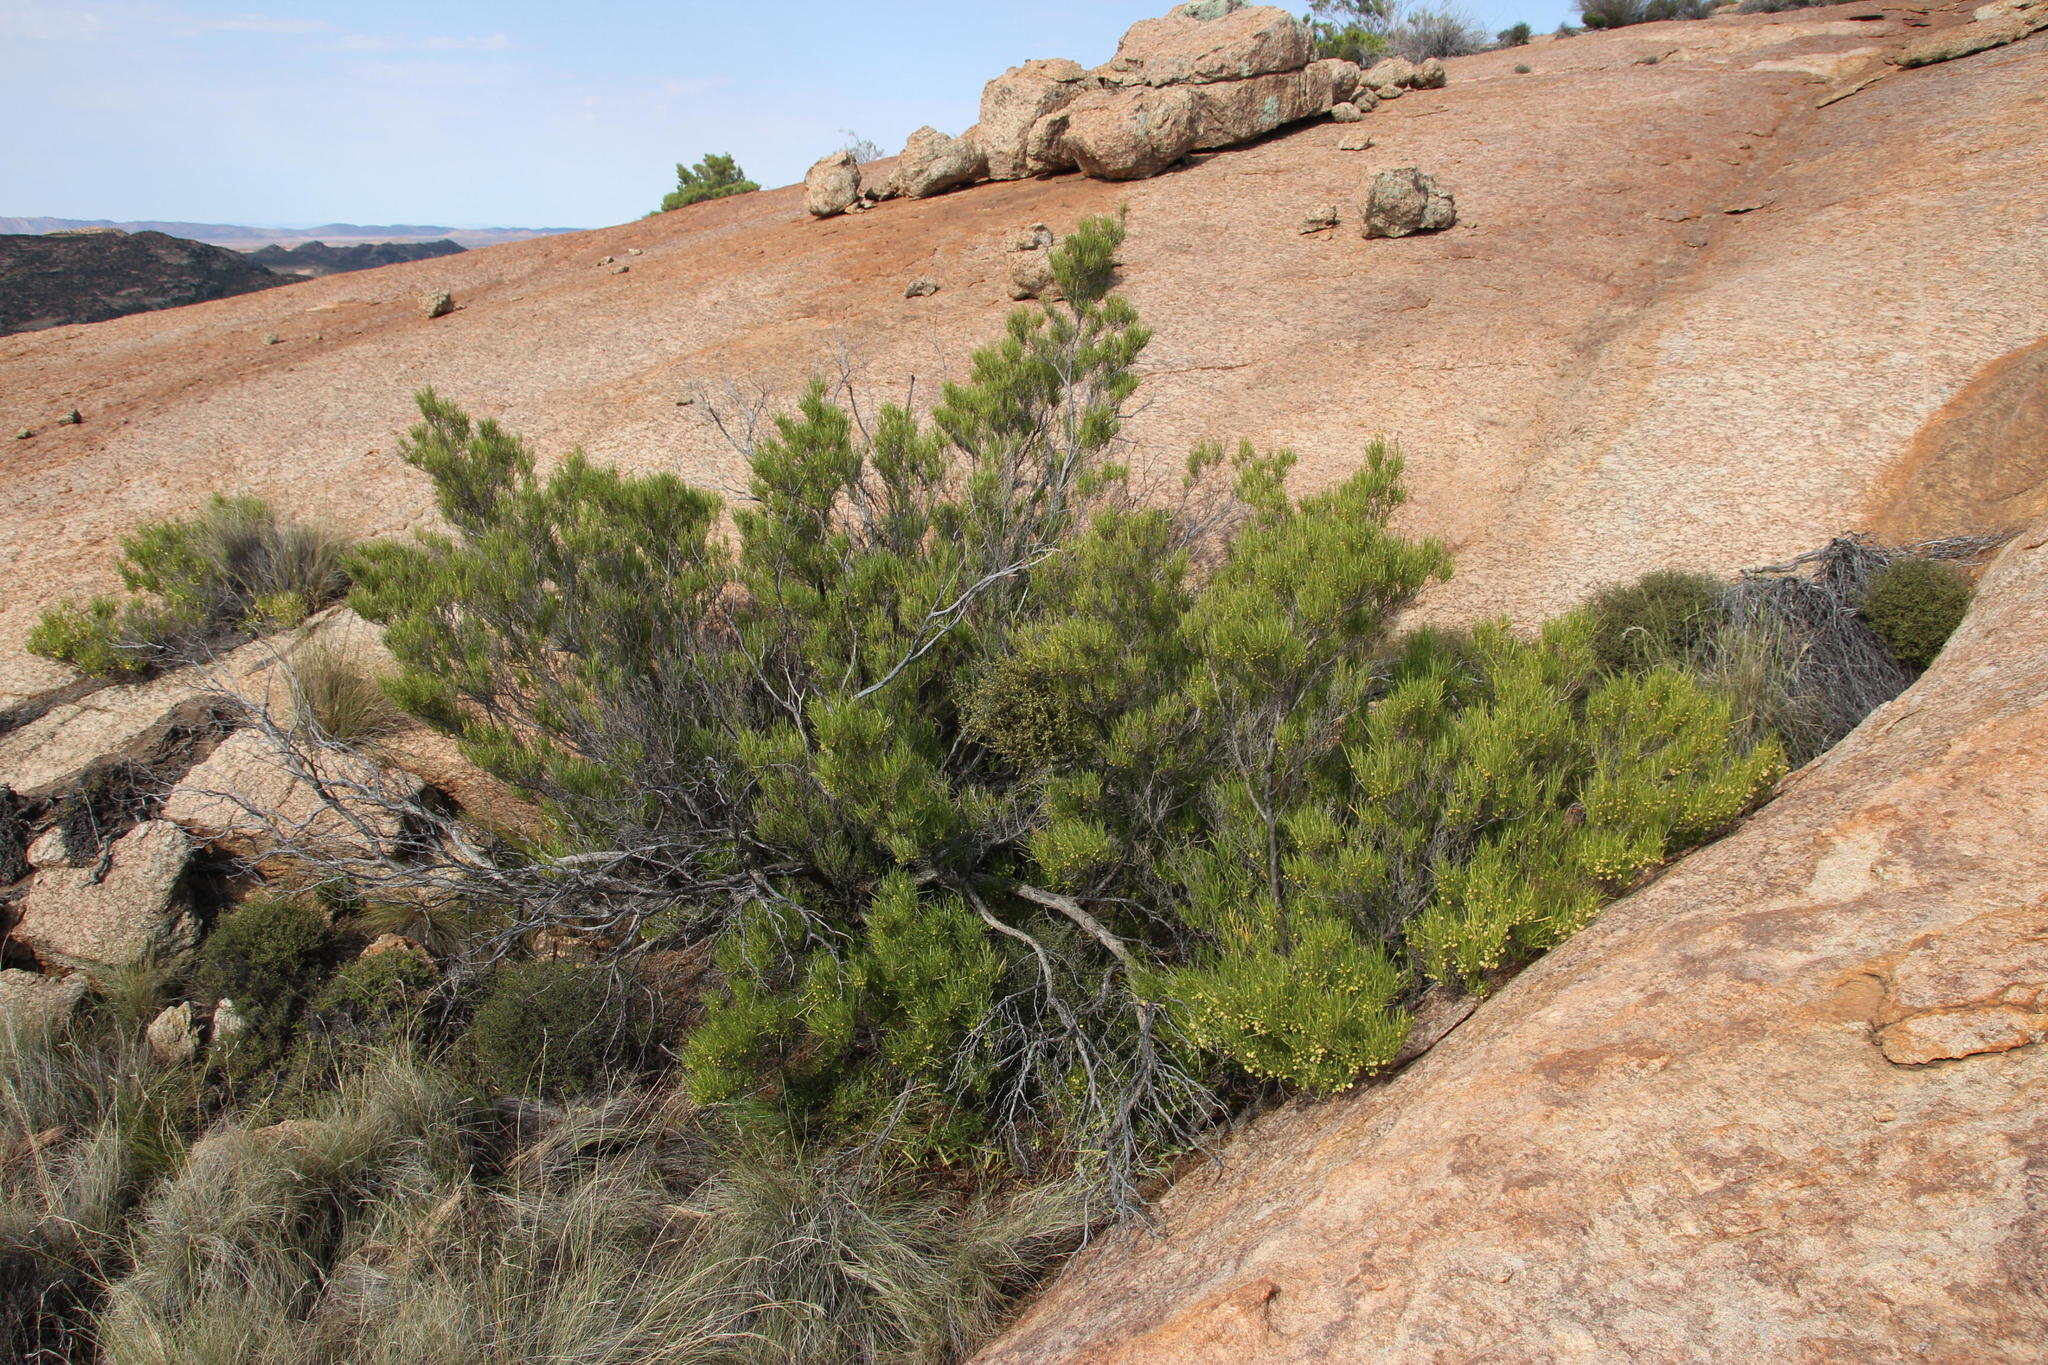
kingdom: Plantae
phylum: Tracheophyta
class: Magnoliopsida
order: Sapindales
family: Sapindaceae
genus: Dodonaea
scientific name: Dodonaea viscosa
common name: Hopbush
